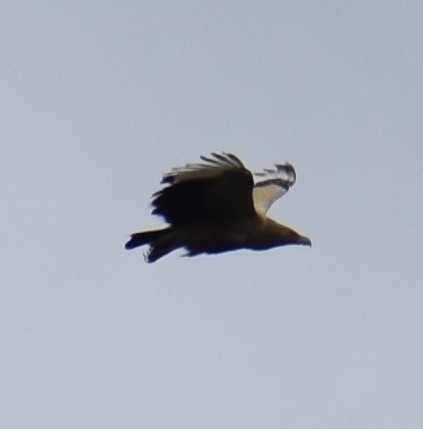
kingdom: Animalia
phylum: Chordata
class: Aves
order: Accipitriformes
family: Accipitridae
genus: Gypohierax
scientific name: Gypohierax angolensis
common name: Palm-nut vulture
